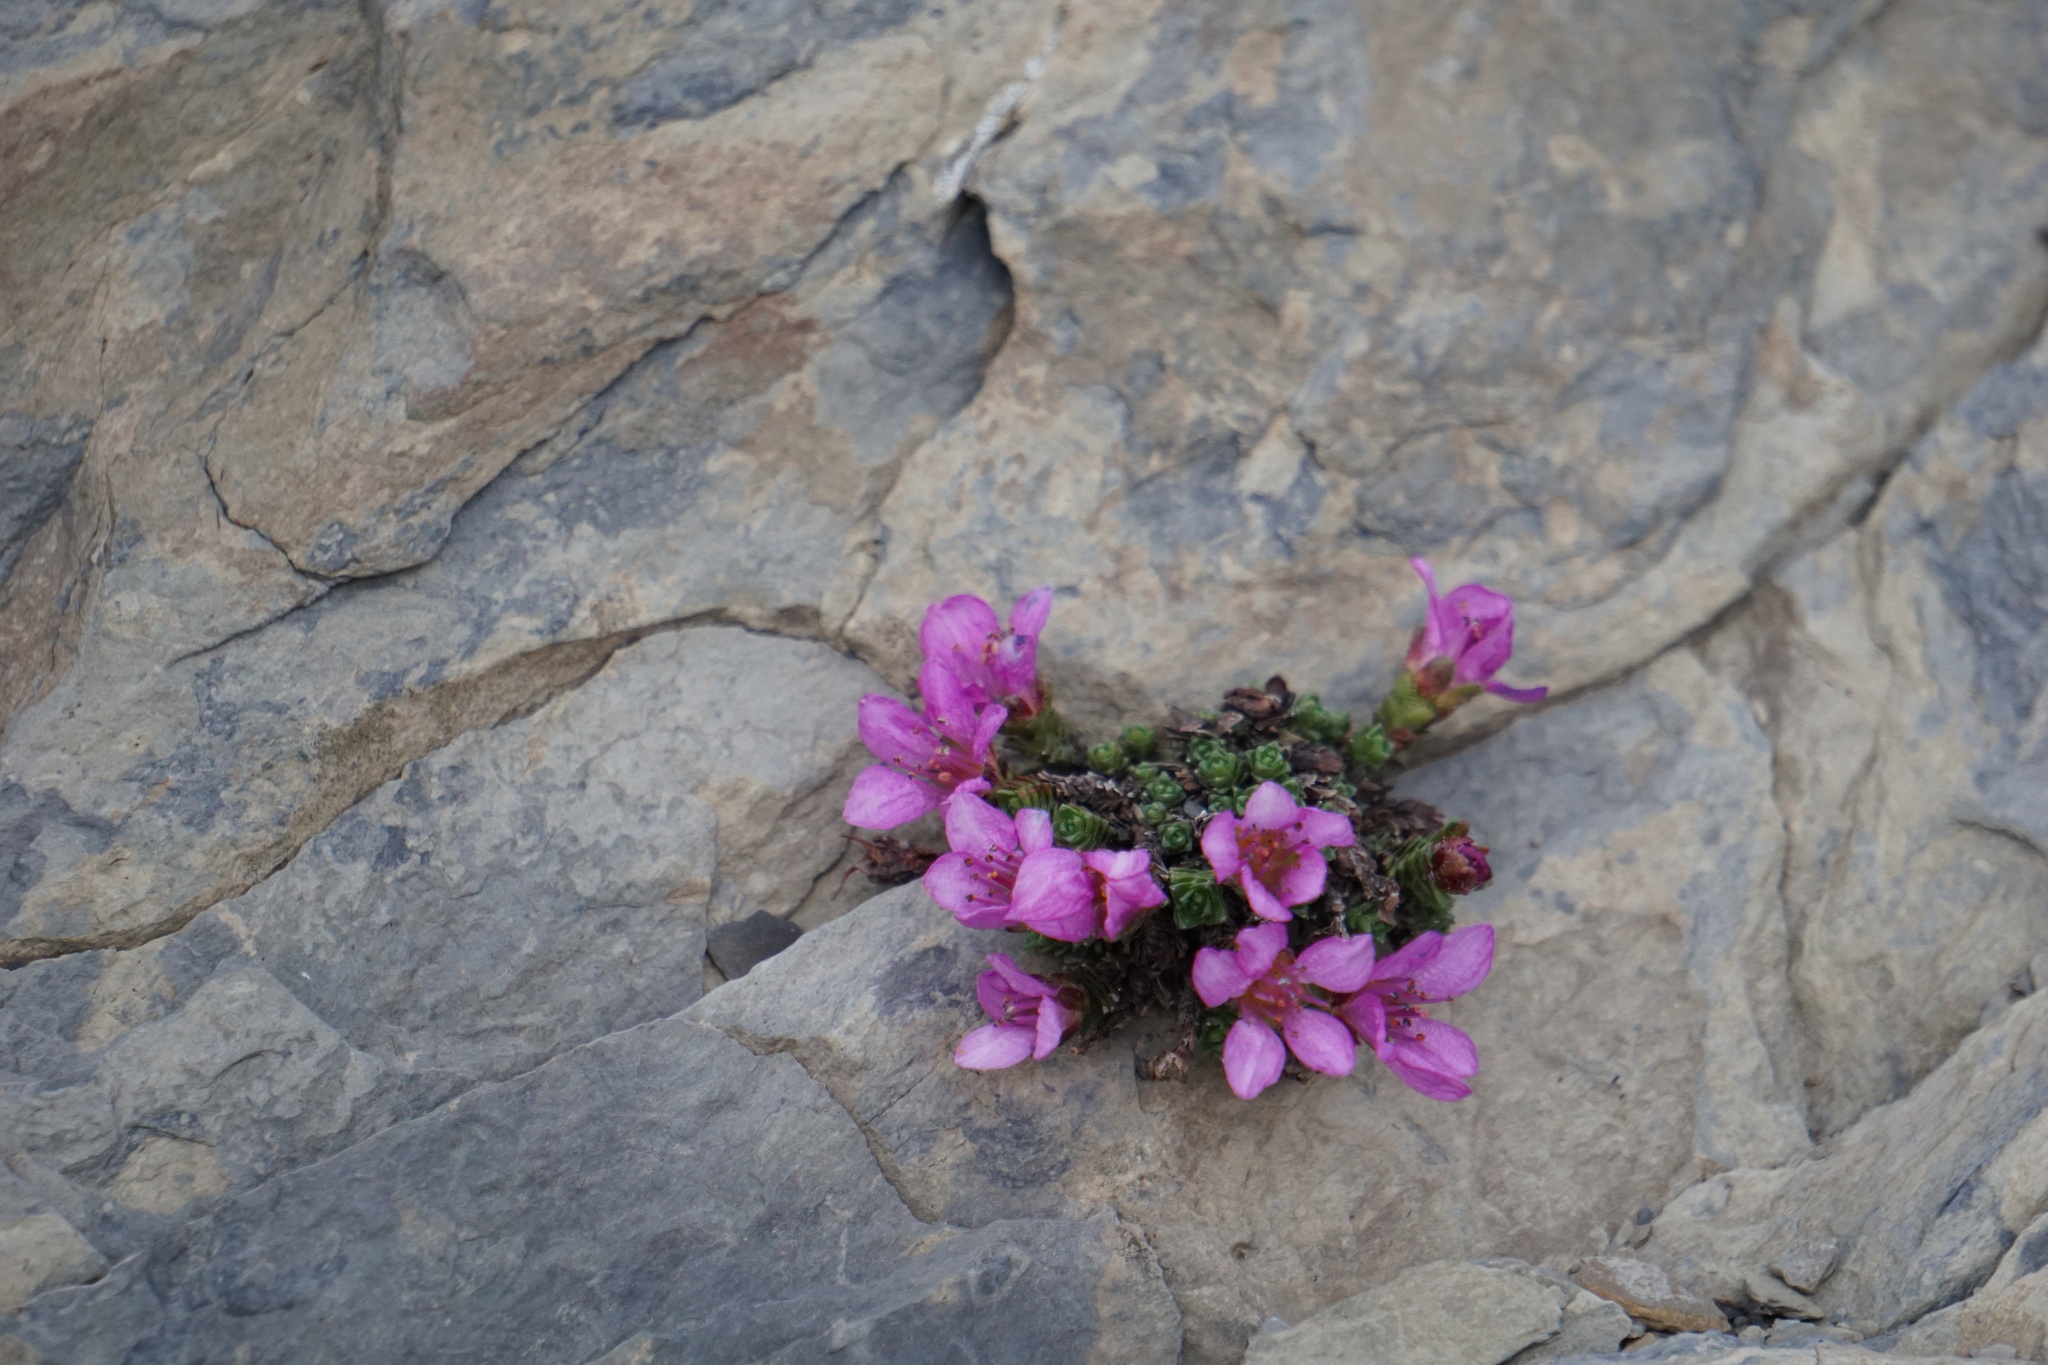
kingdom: Plantae
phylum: Tracheophyta
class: Magnoliopsida
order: Saxifragales
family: Saxifragaceae
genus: Saxifraga
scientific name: Saxifraga oppositifolia
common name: Purple saxifrage
